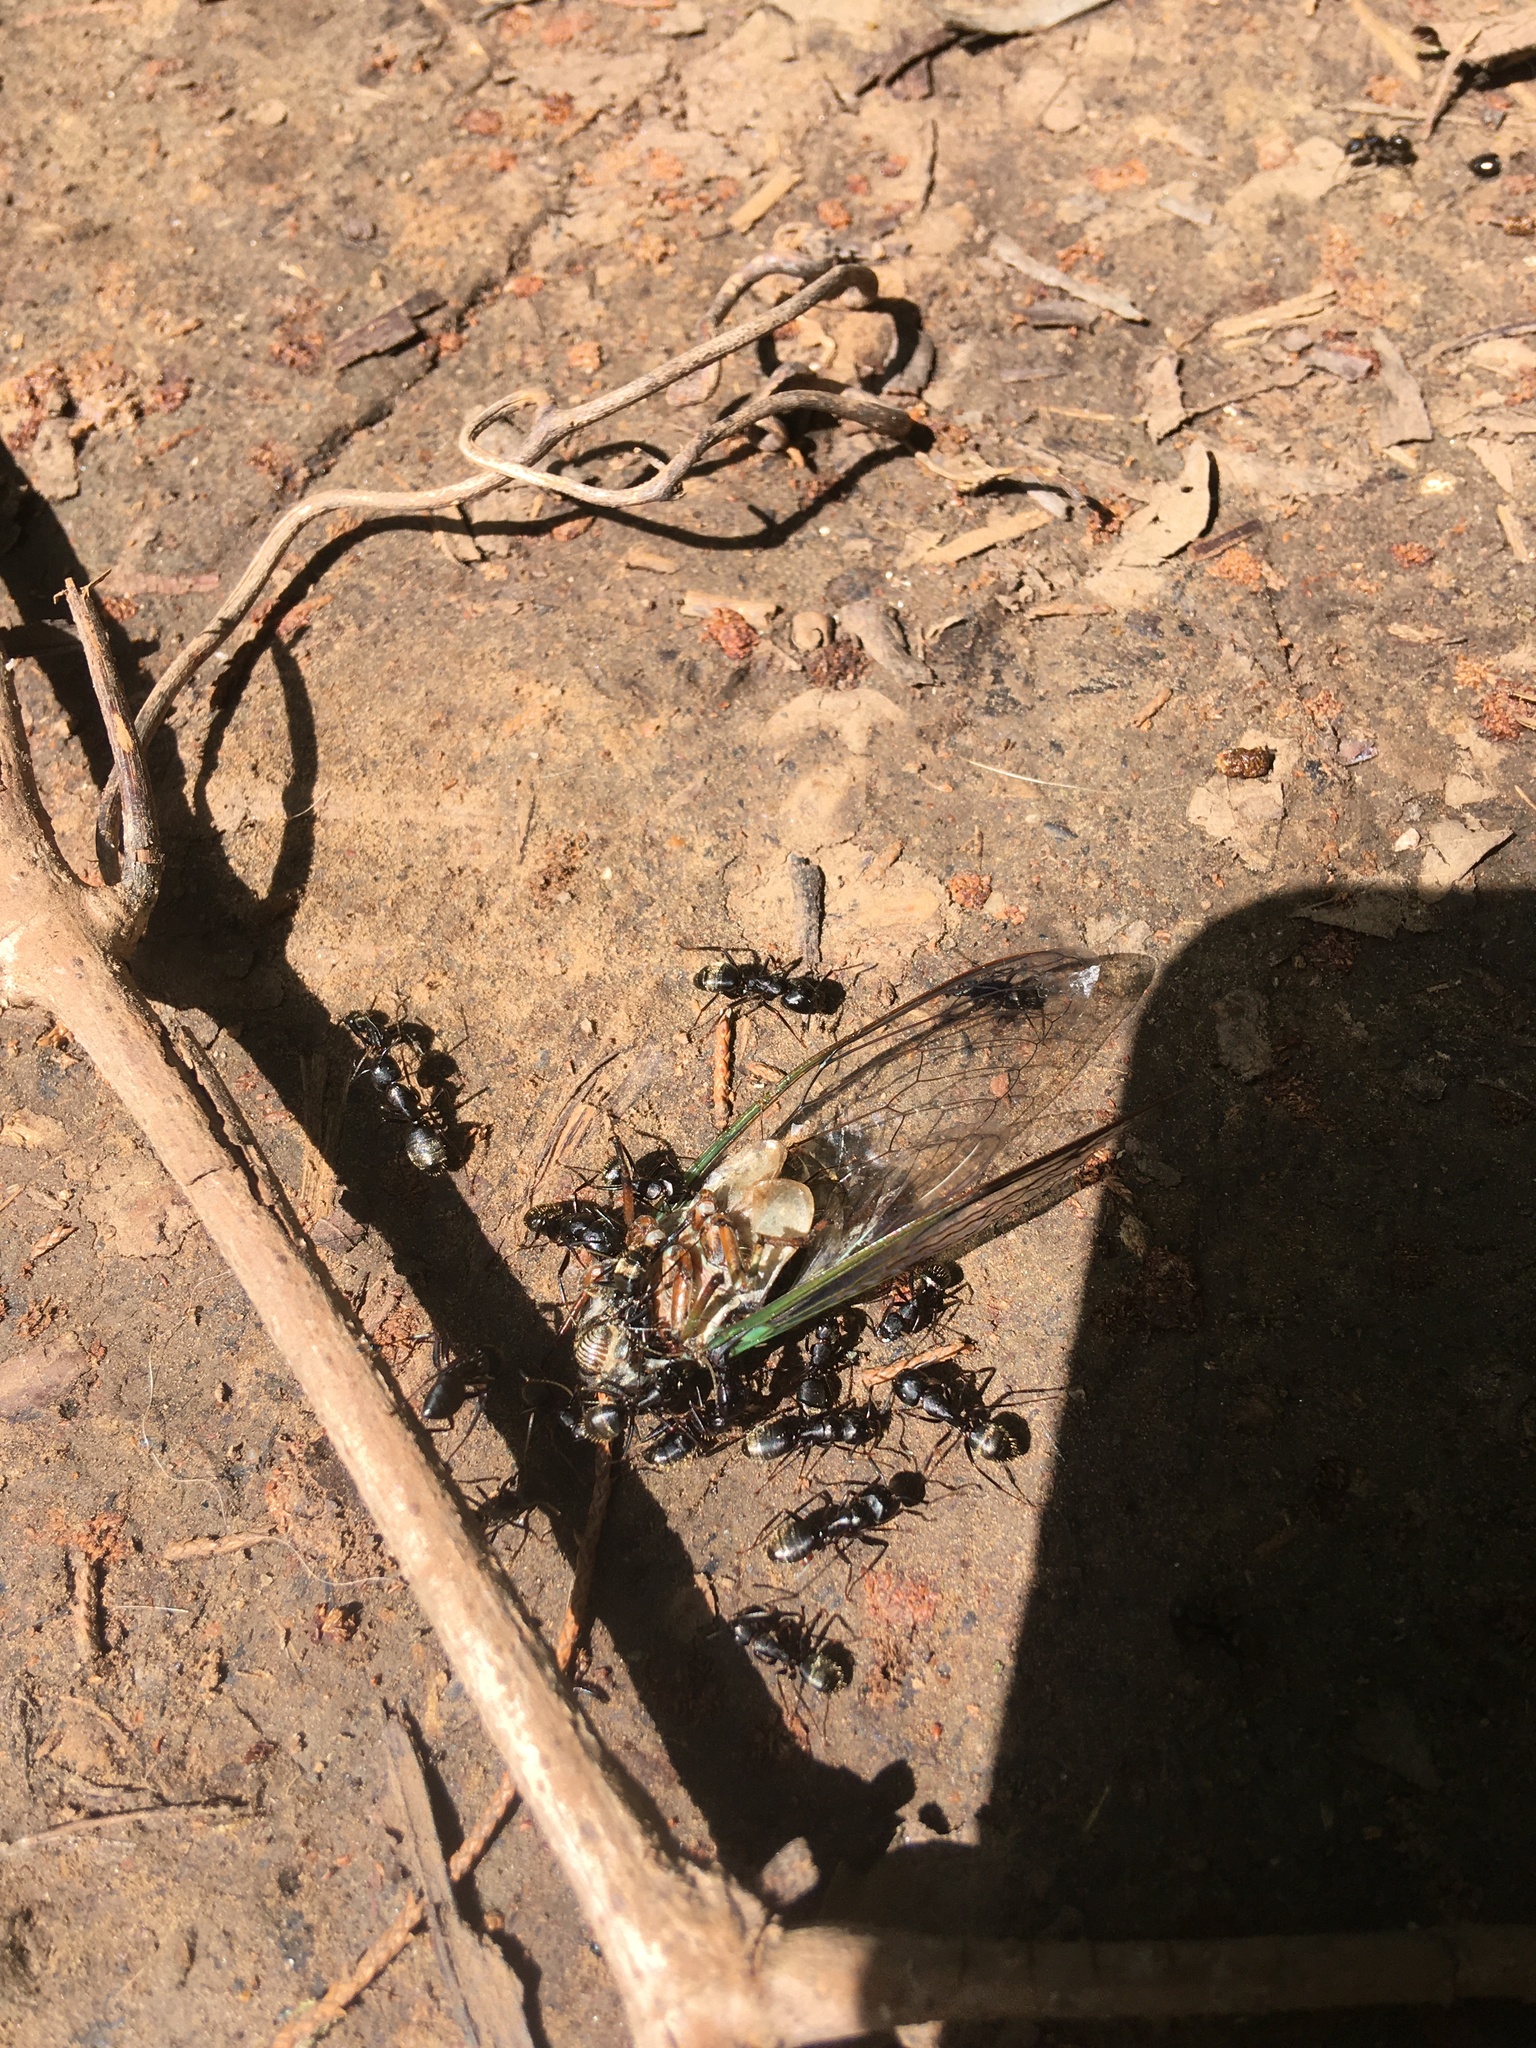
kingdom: Animalia
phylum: Arthropoda
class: Insecta
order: Hymenoptera
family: Formicidae
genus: Camponotus
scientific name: Camponotus pennsylvanicus
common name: Black carpenter ant
